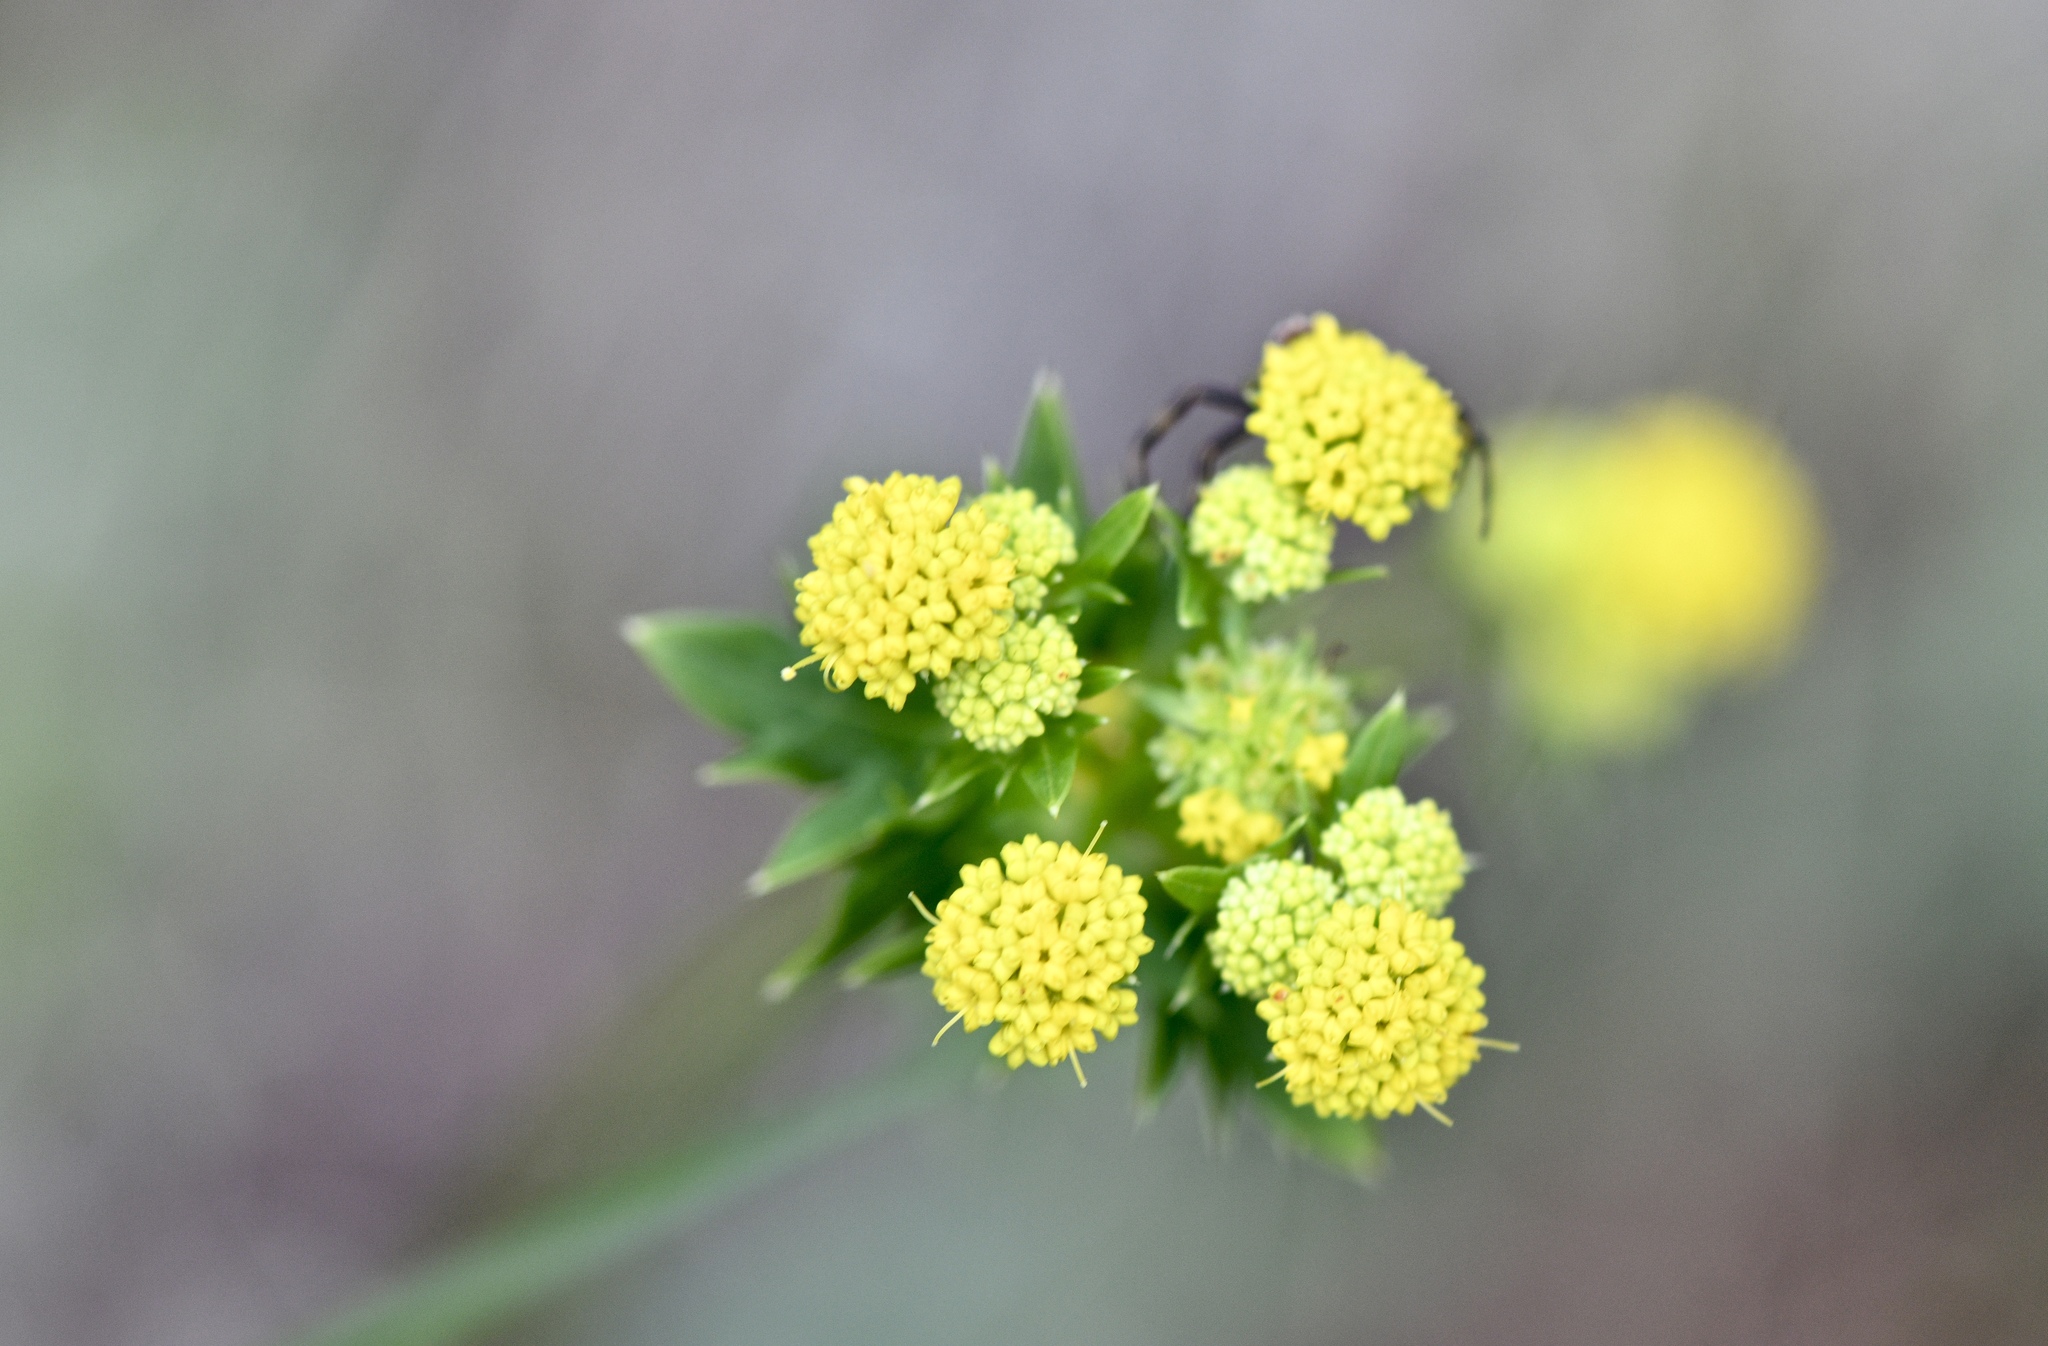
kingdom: Plantae
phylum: Tracheophyta
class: Magnoliopsida
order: Apiales
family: Apiaceae
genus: Sanicula
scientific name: Sanicula laciniata
